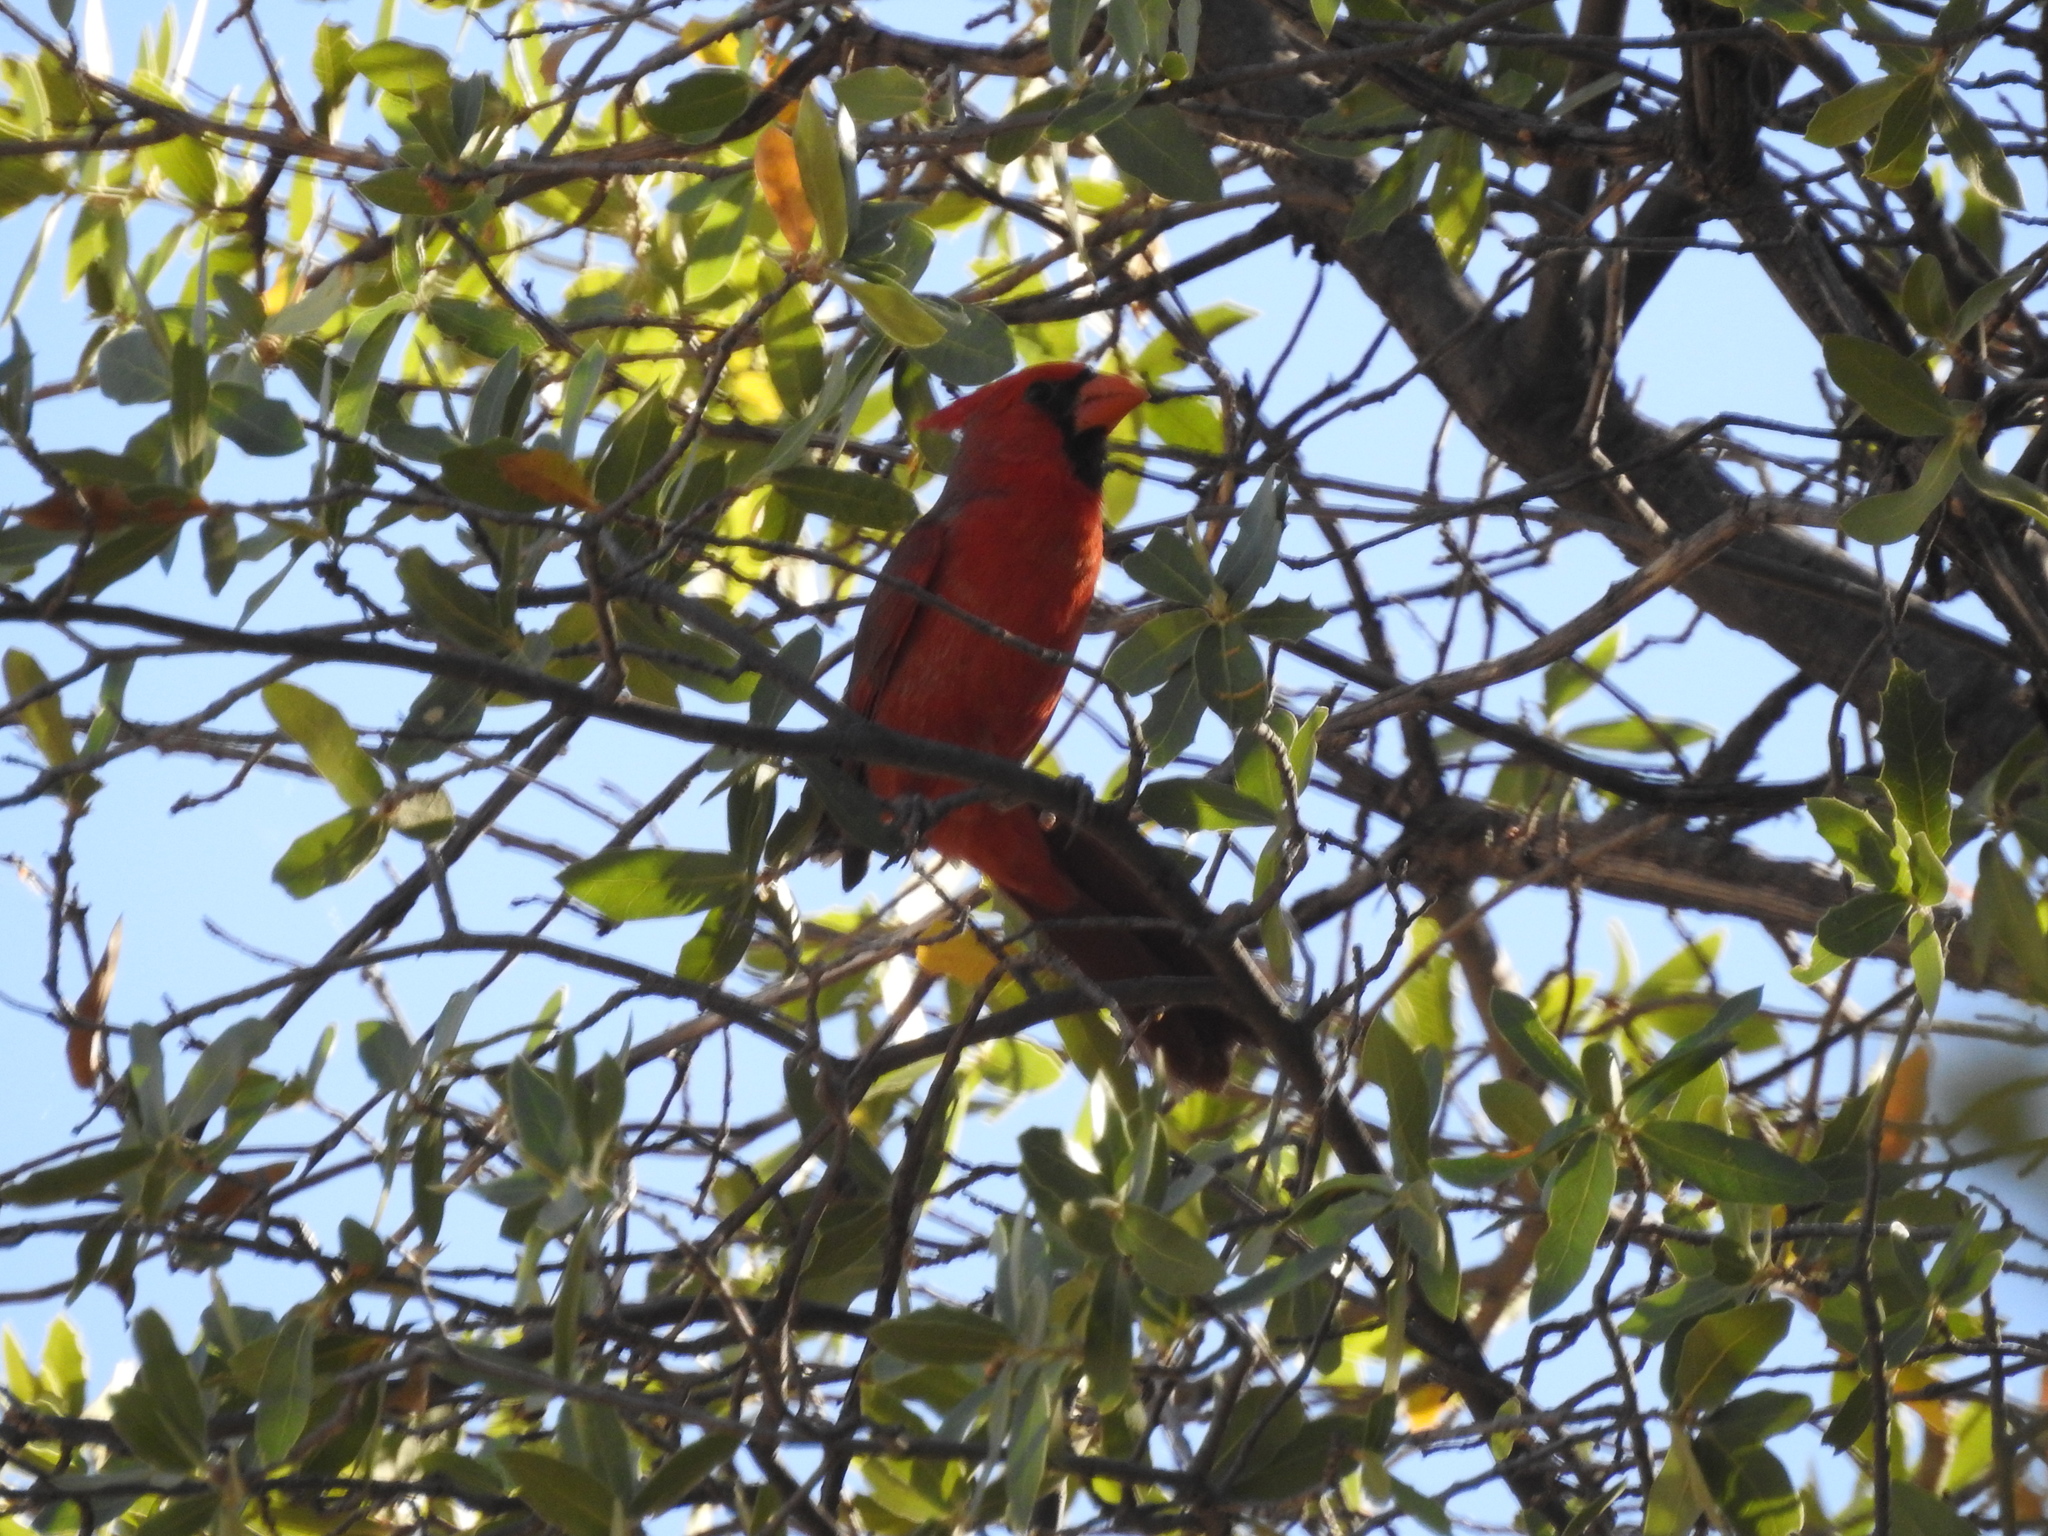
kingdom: Animalia
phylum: Chordata
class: Aves
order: Passeriformes
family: Cardinalidae
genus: Cardinalis
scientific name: Cardinalis cardinalis
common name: Northern cardinal
